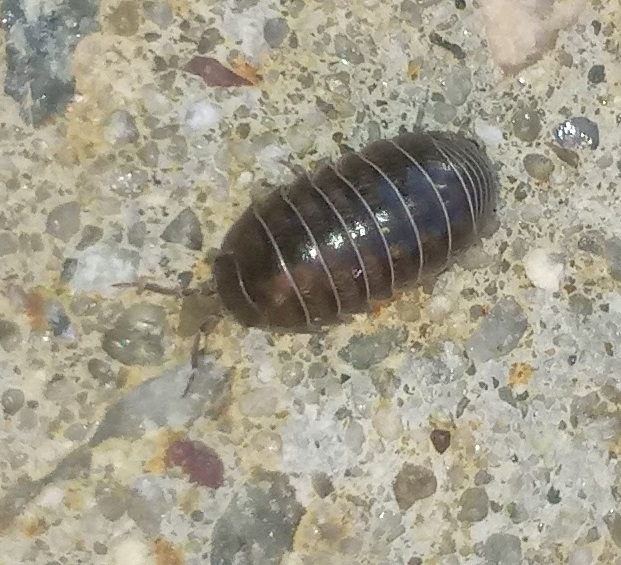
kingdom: Animalia
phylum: Arthropoda
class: Malacostraca
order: Isopoda
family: Armadillidiidae
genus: Armadillidium
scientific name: Armadillidium vulgare
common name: Common pill woodlouse
